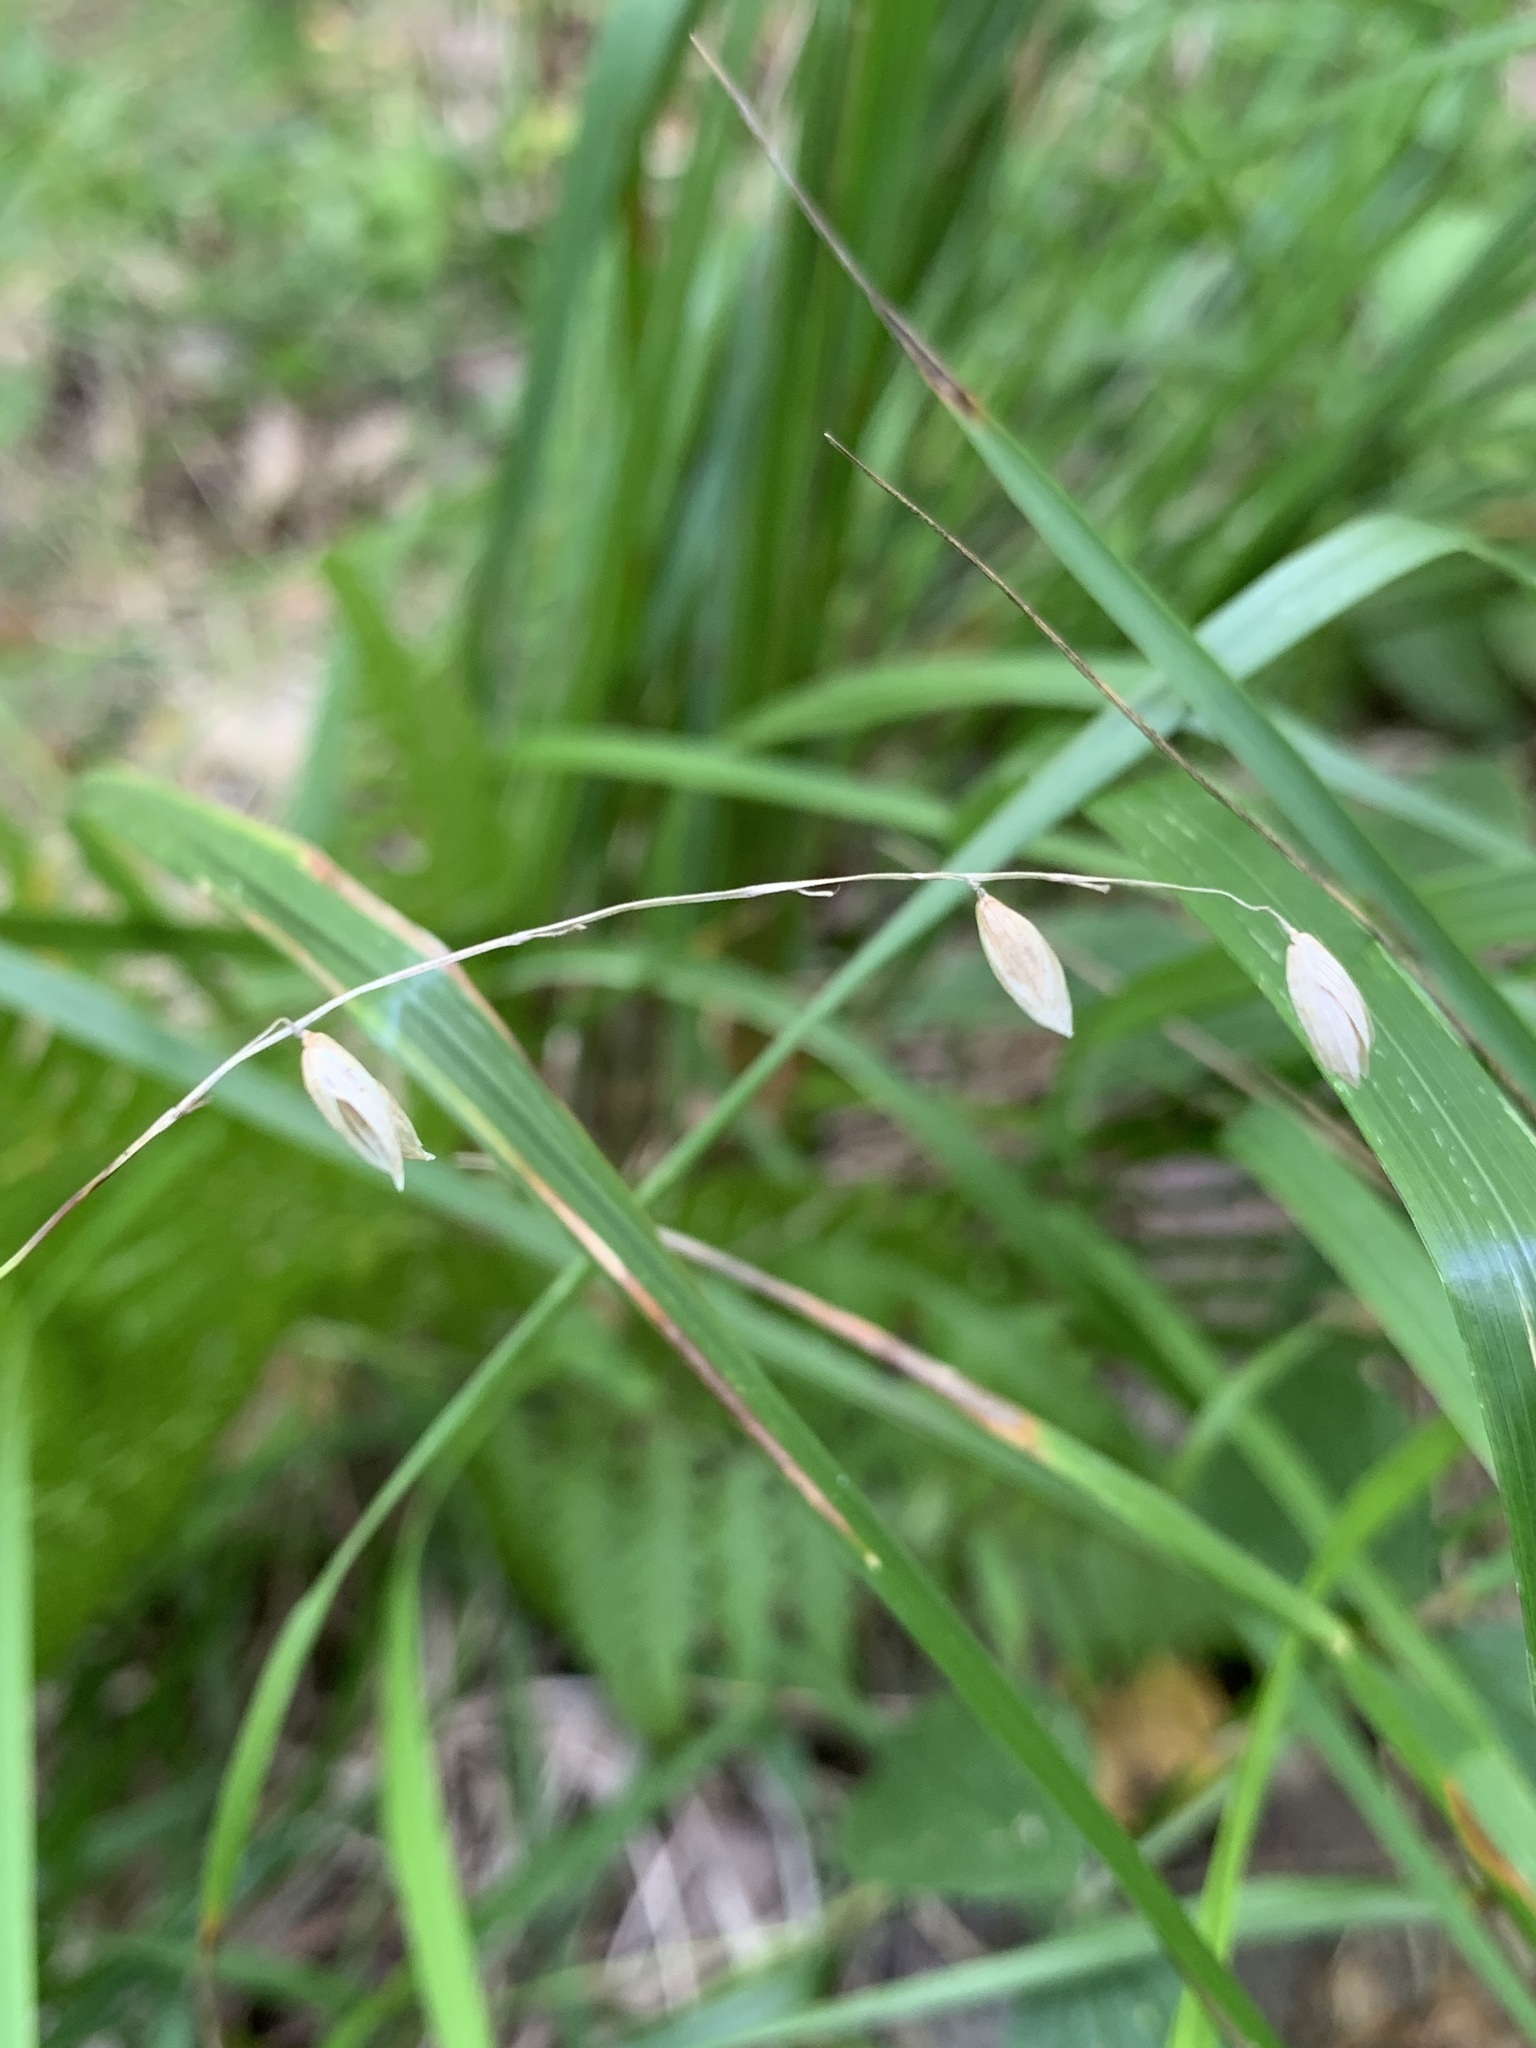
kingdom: Plantae
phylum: Tracheophyta
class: Liliopsida
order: Poales
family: Poaceae
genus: Melica
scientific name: Melica nutans
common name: Mountain melick
